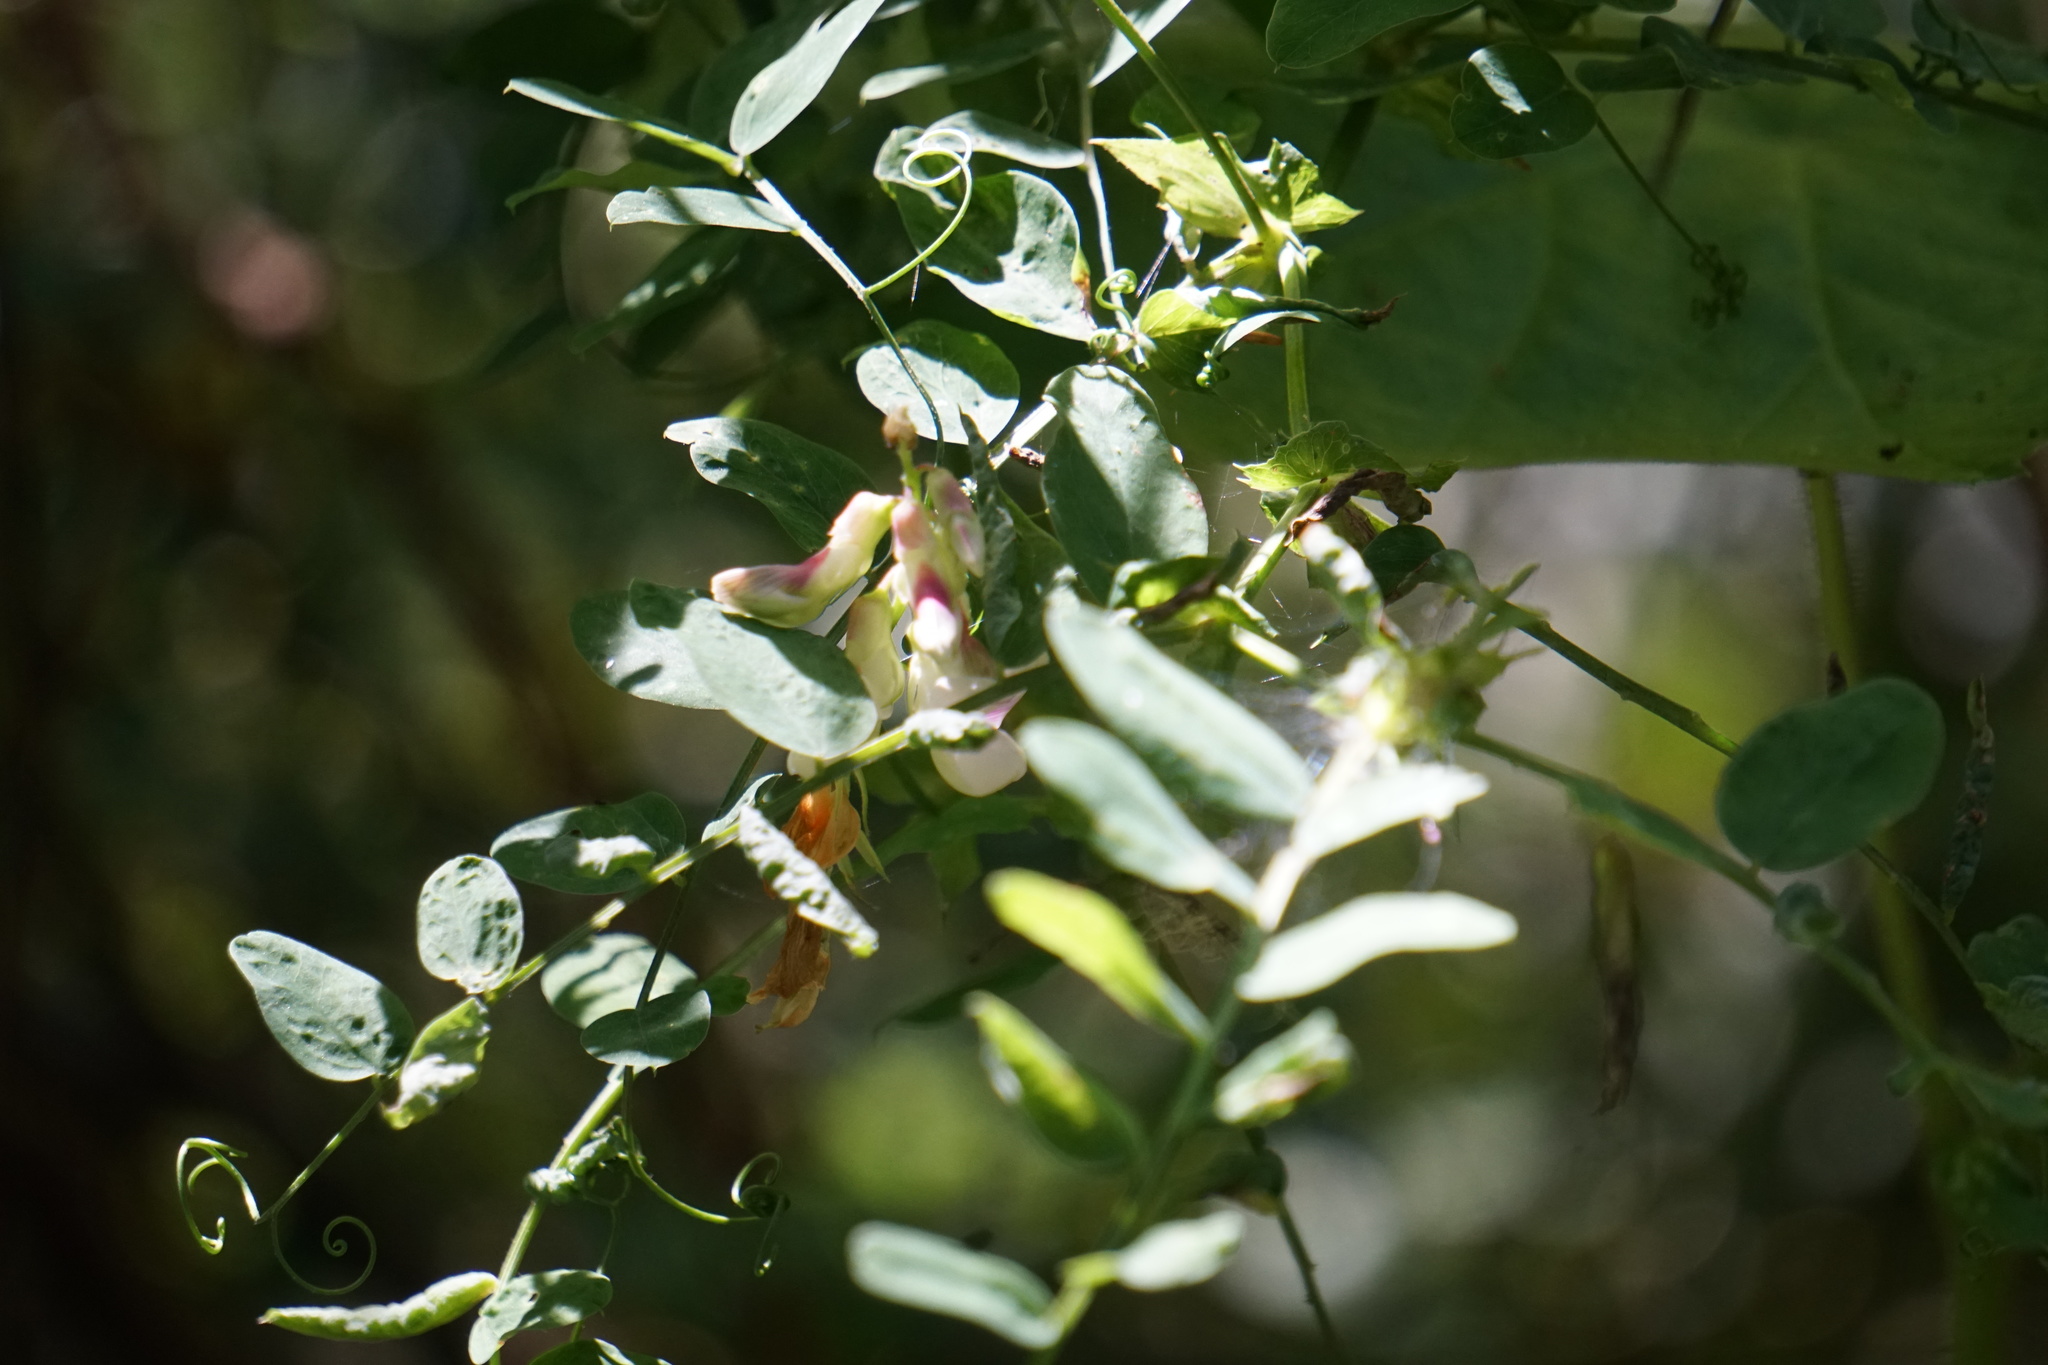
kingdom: Plantae
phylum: Tracheophyta
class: Magnoliopsida
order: Fabales
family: Fabaceae
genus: Lathyrus
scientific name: Lathyrus vestitus
